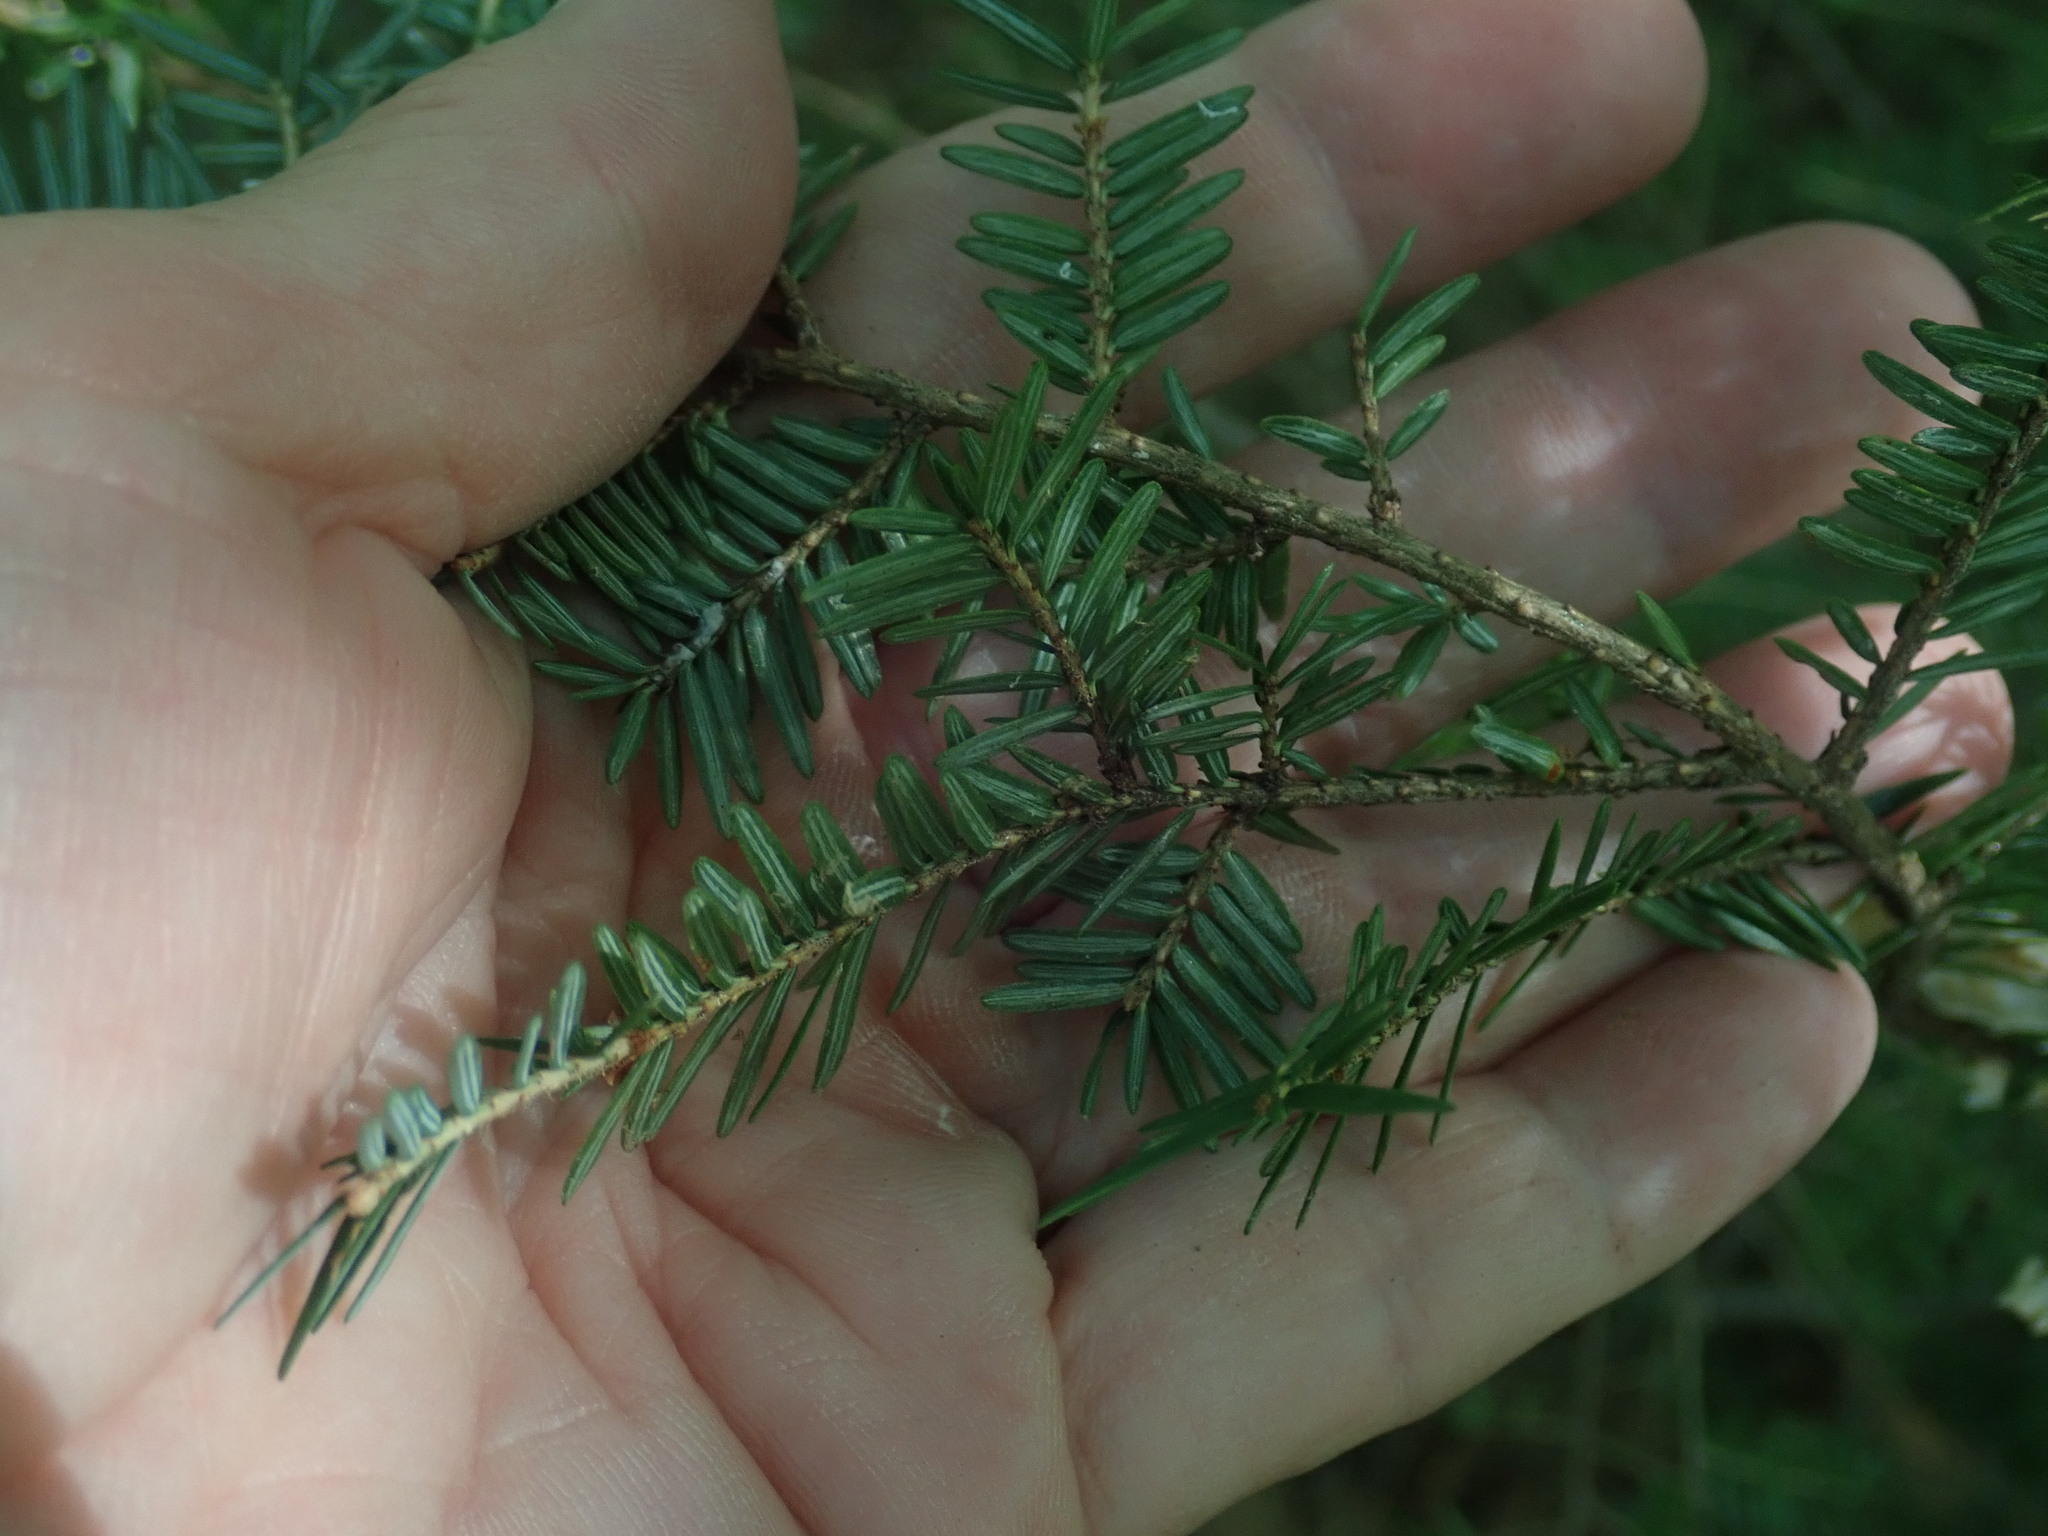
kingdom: Plantae
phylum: Tracheophyta
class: Pinopsida
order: Pinales
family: Pinaceae
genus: Tsuga
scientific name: Tsuga canadensis
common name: Eastern hemlock
